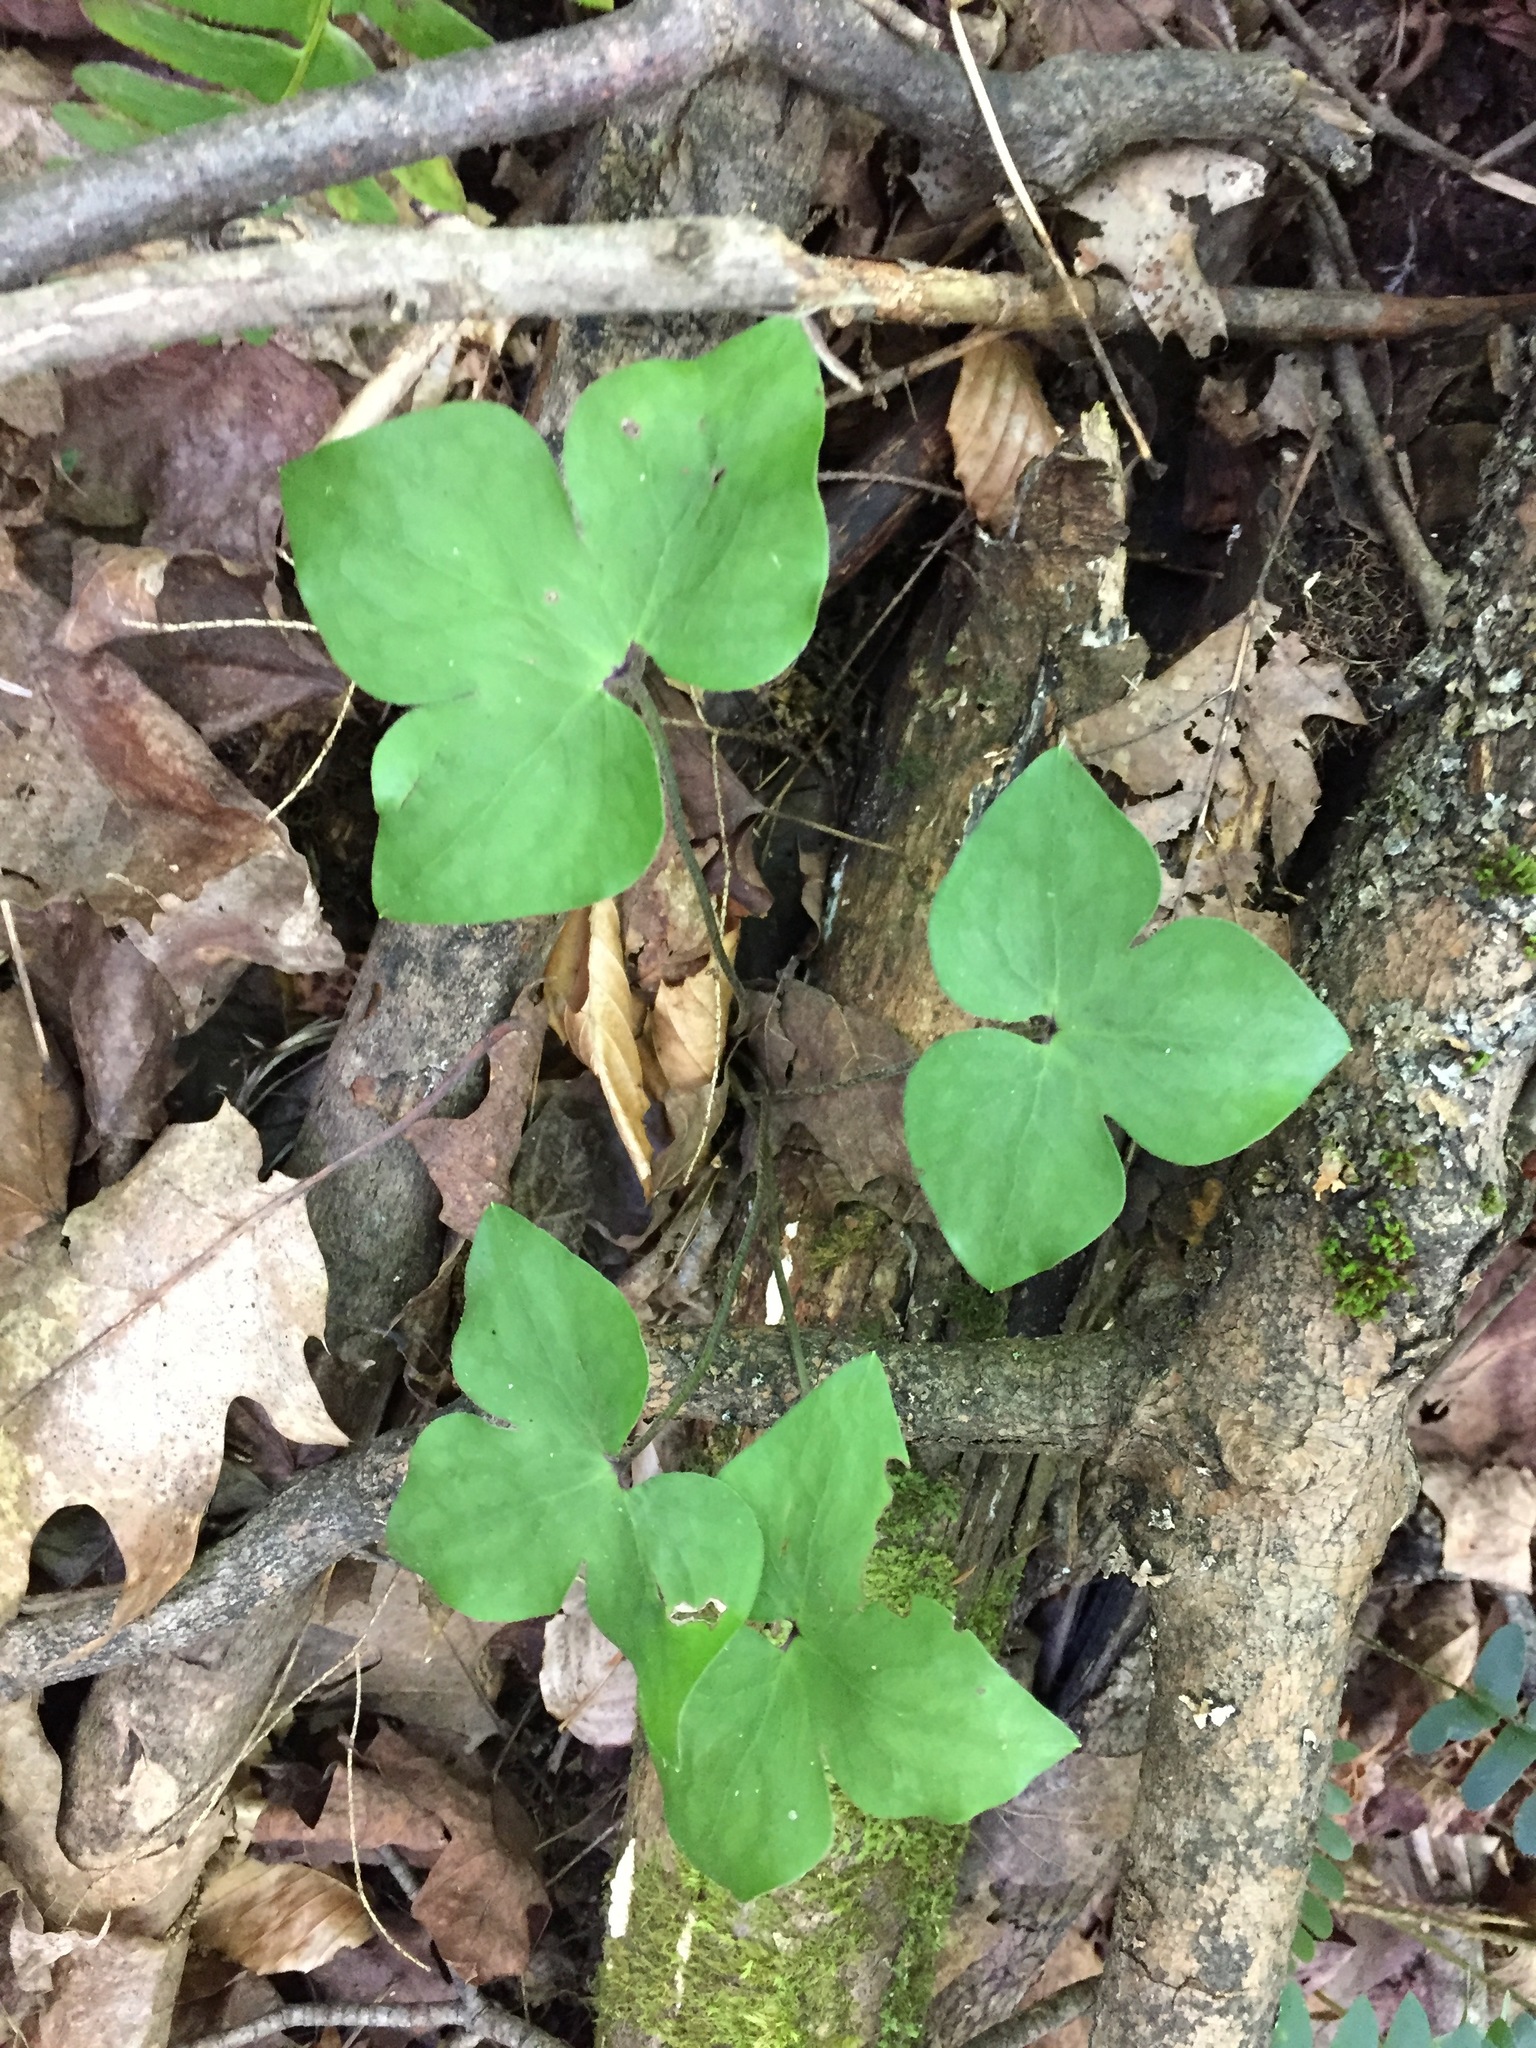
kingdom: Plantae
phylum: Tracheophyta
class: Magnoliopsida
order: Ranunculales
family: Ranunculaceae
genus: Hepatica
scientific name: Hepatica acutiloba
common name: Sharp-lobed hepatica
